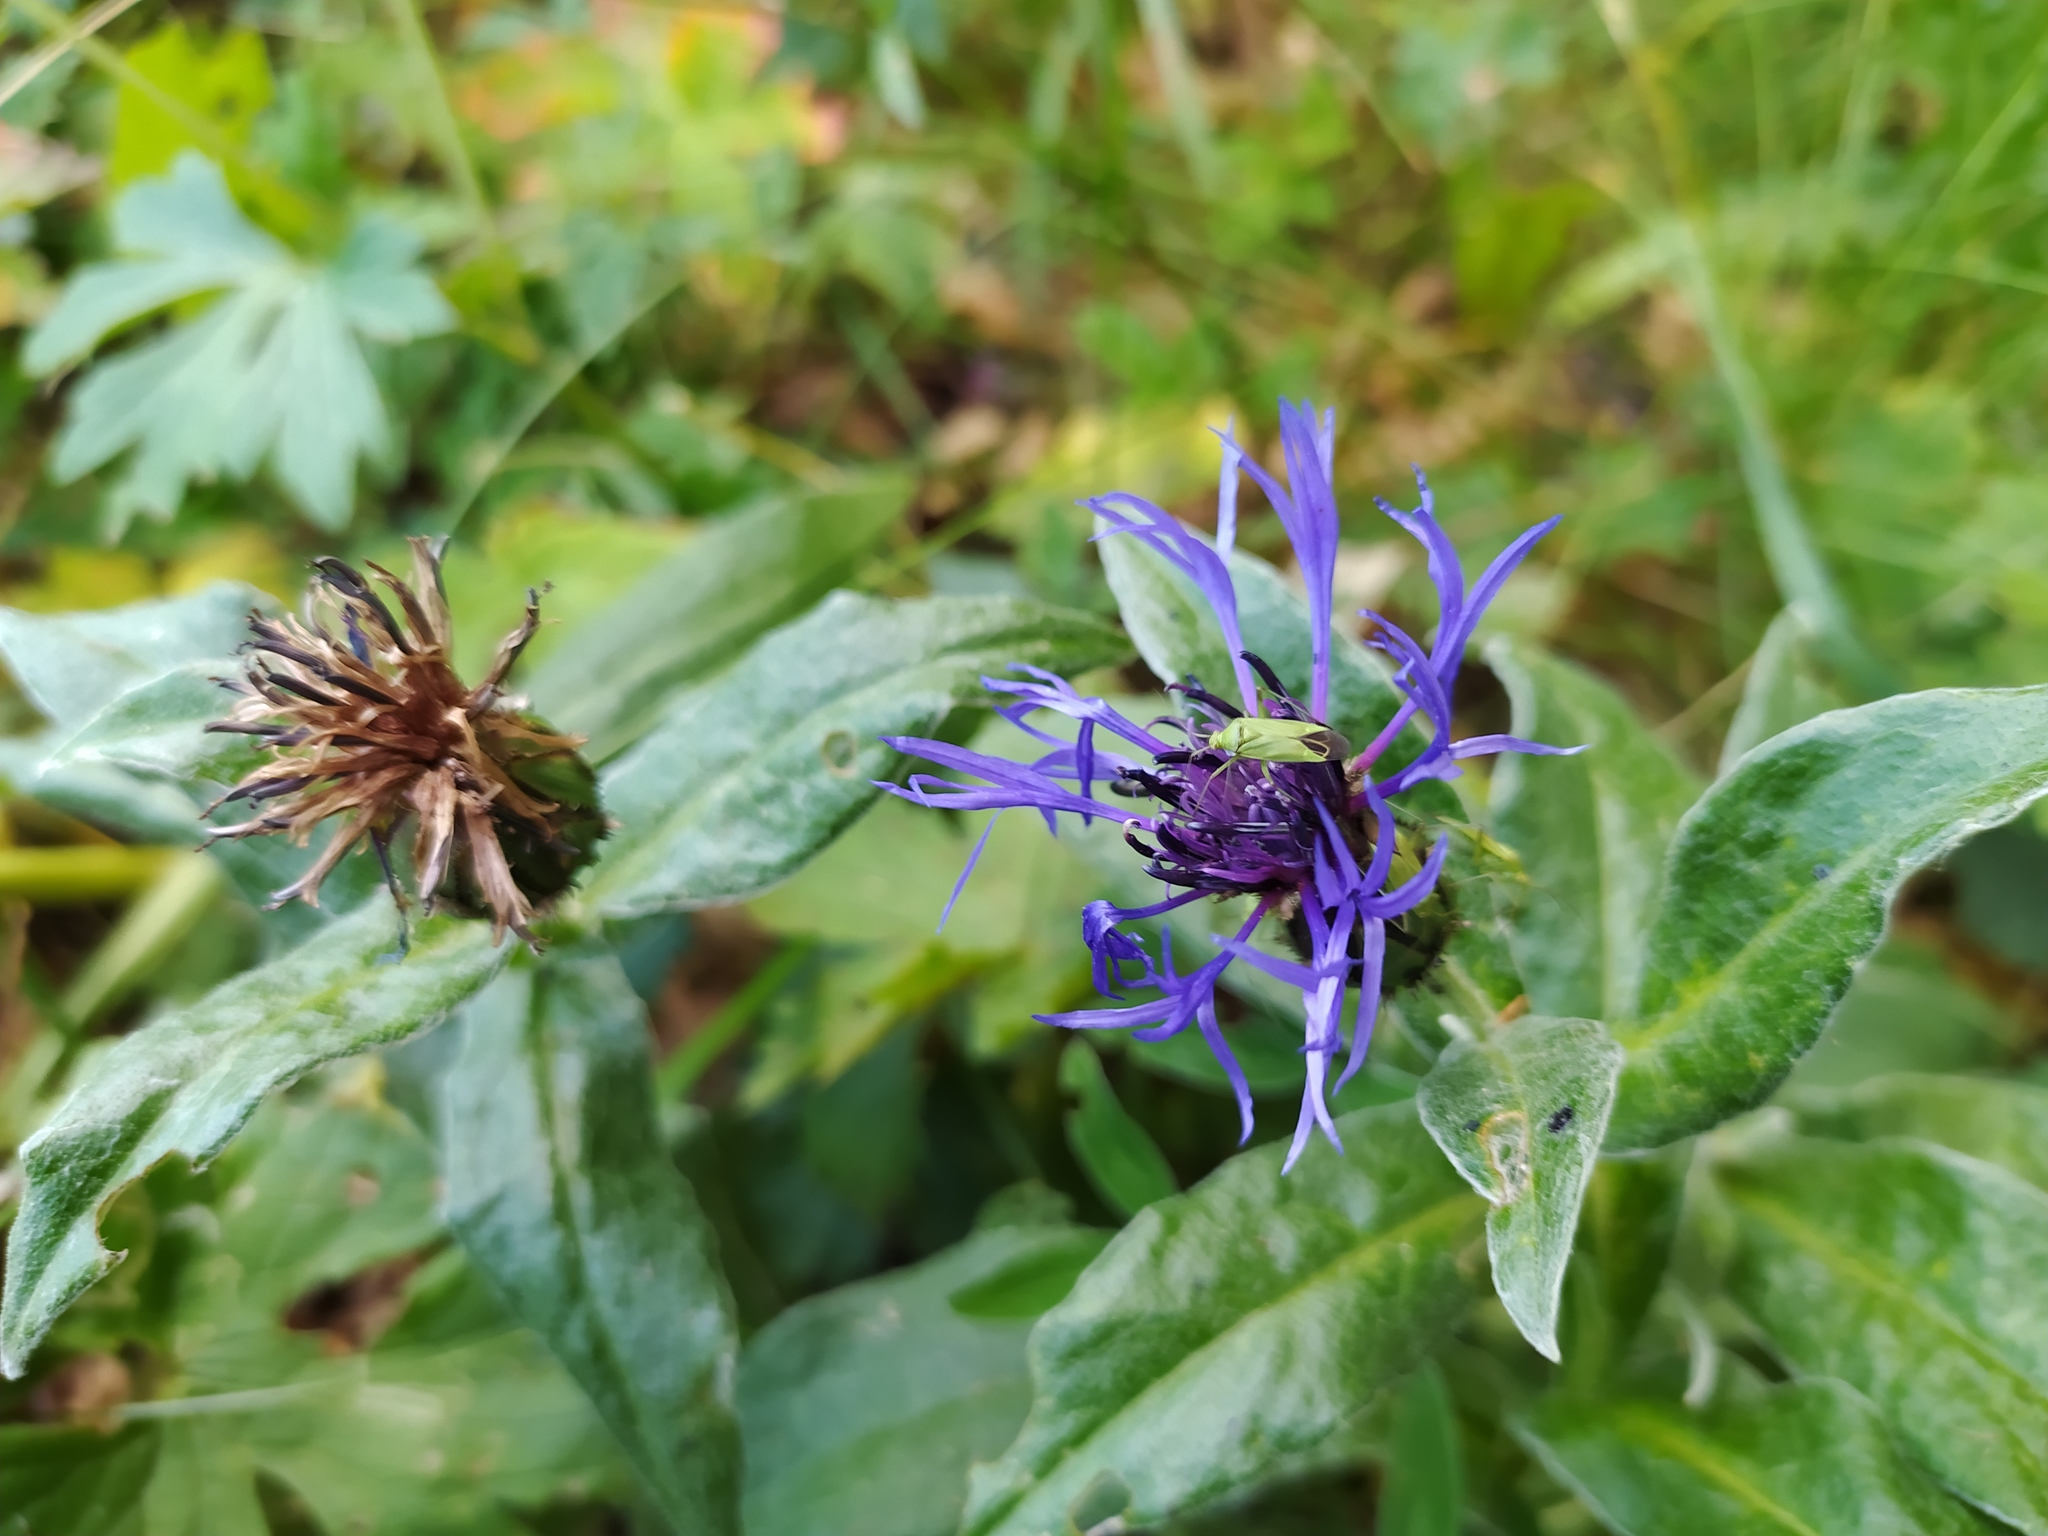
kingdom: Plantae
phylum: Tracheophyta
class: Magnoliopsida
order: Asterales
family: Asteraceae
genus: Centaurea
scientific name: Centaurea montana
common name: Perennial cornflower
